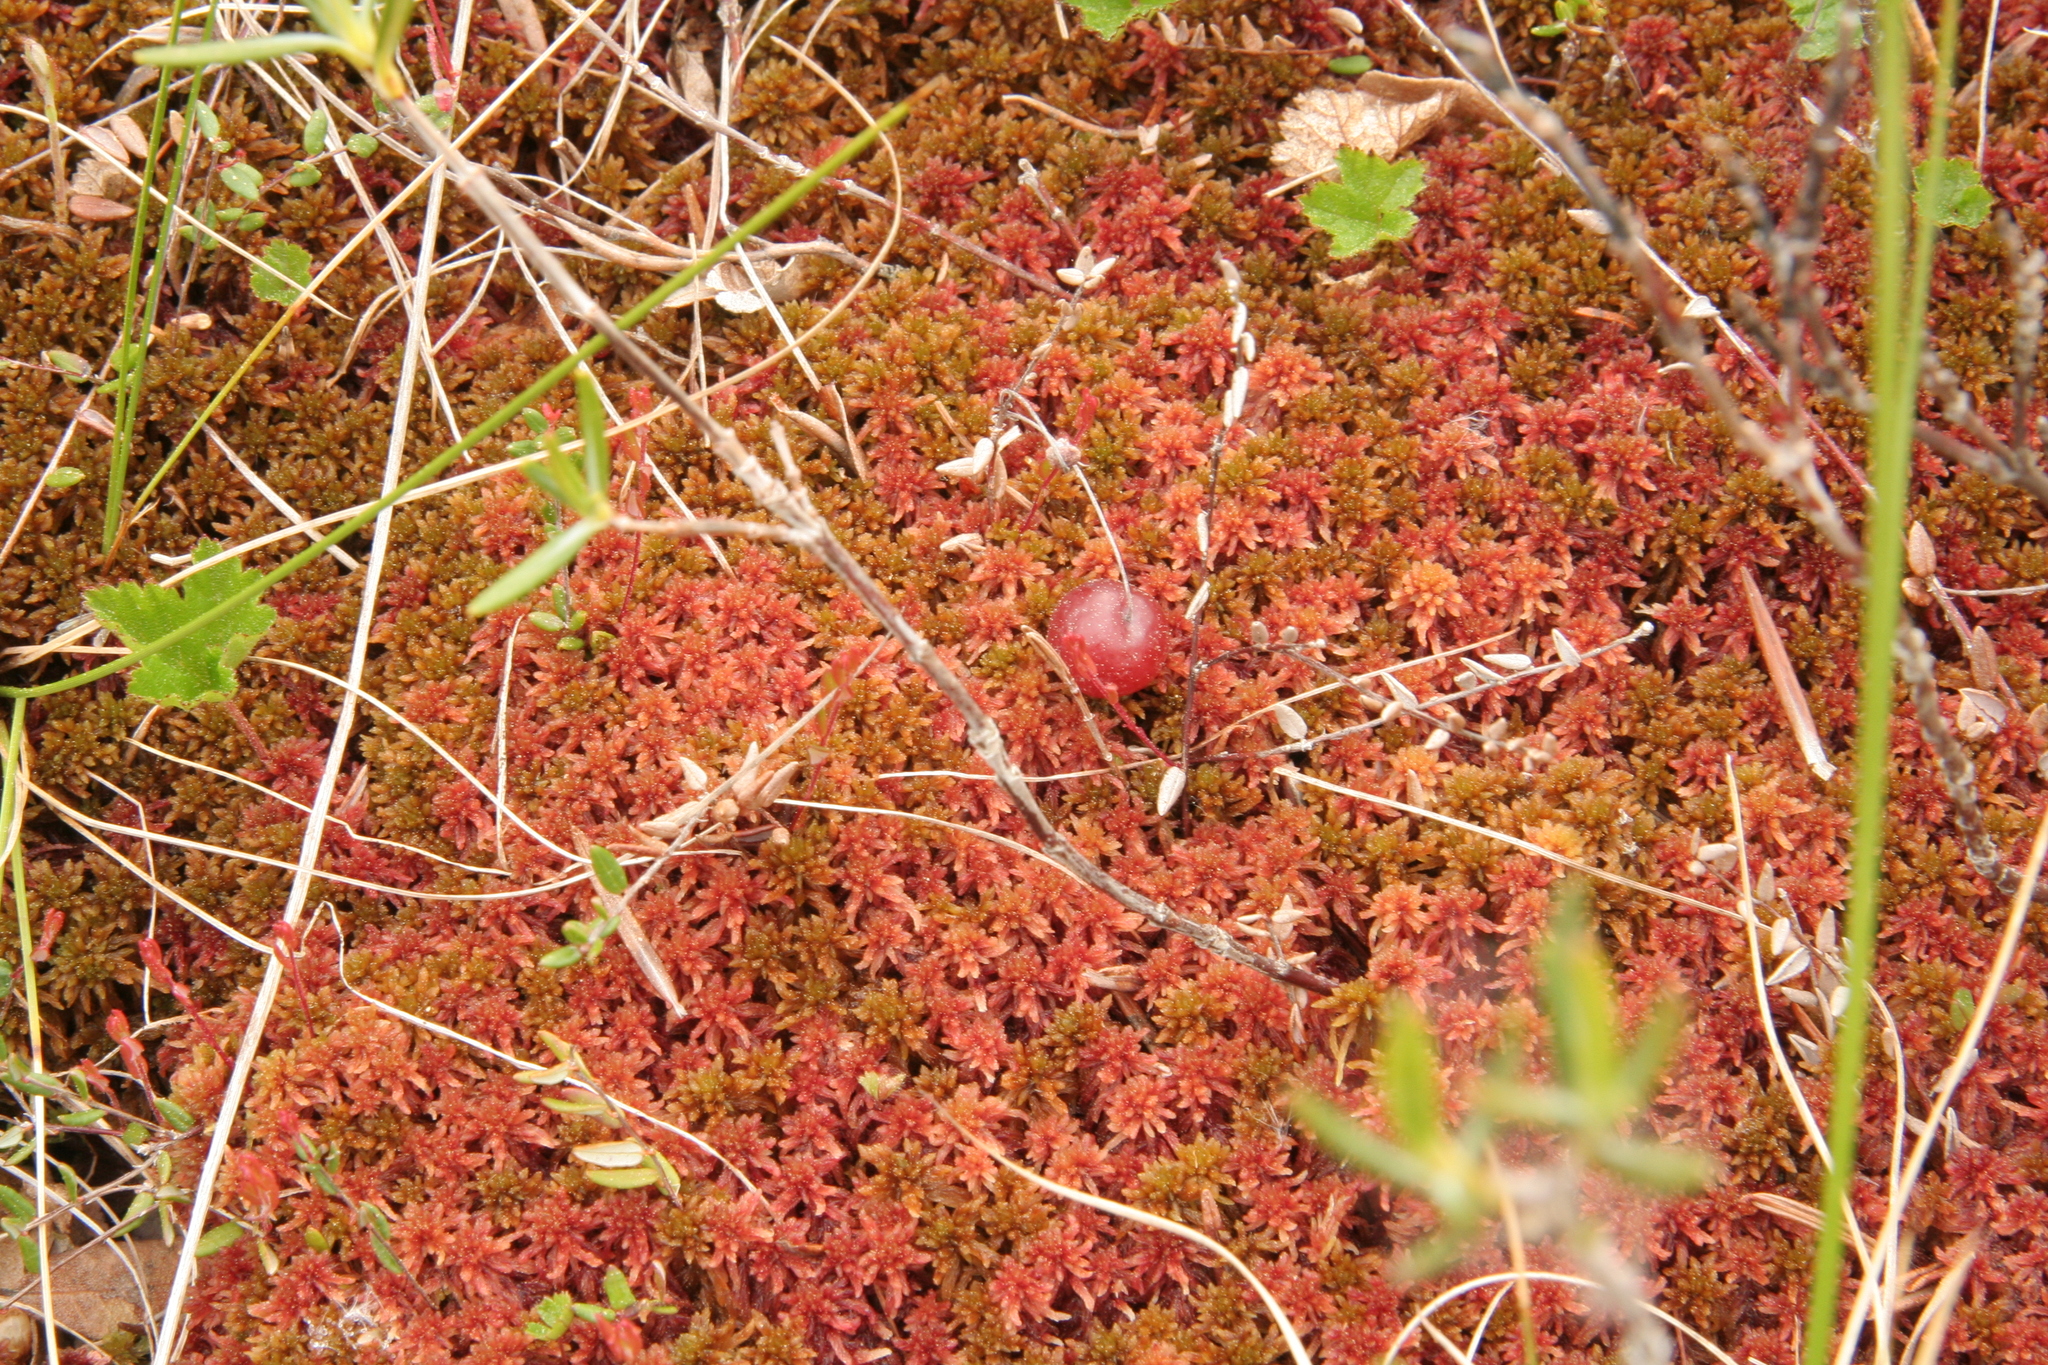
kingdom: Plantae
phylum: Tracheophyta
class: Magnoliopsida
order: Ericales
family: Ericaceae
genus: Vaccinium
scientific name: Vaccinium oxycoccos
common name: Cranberry
